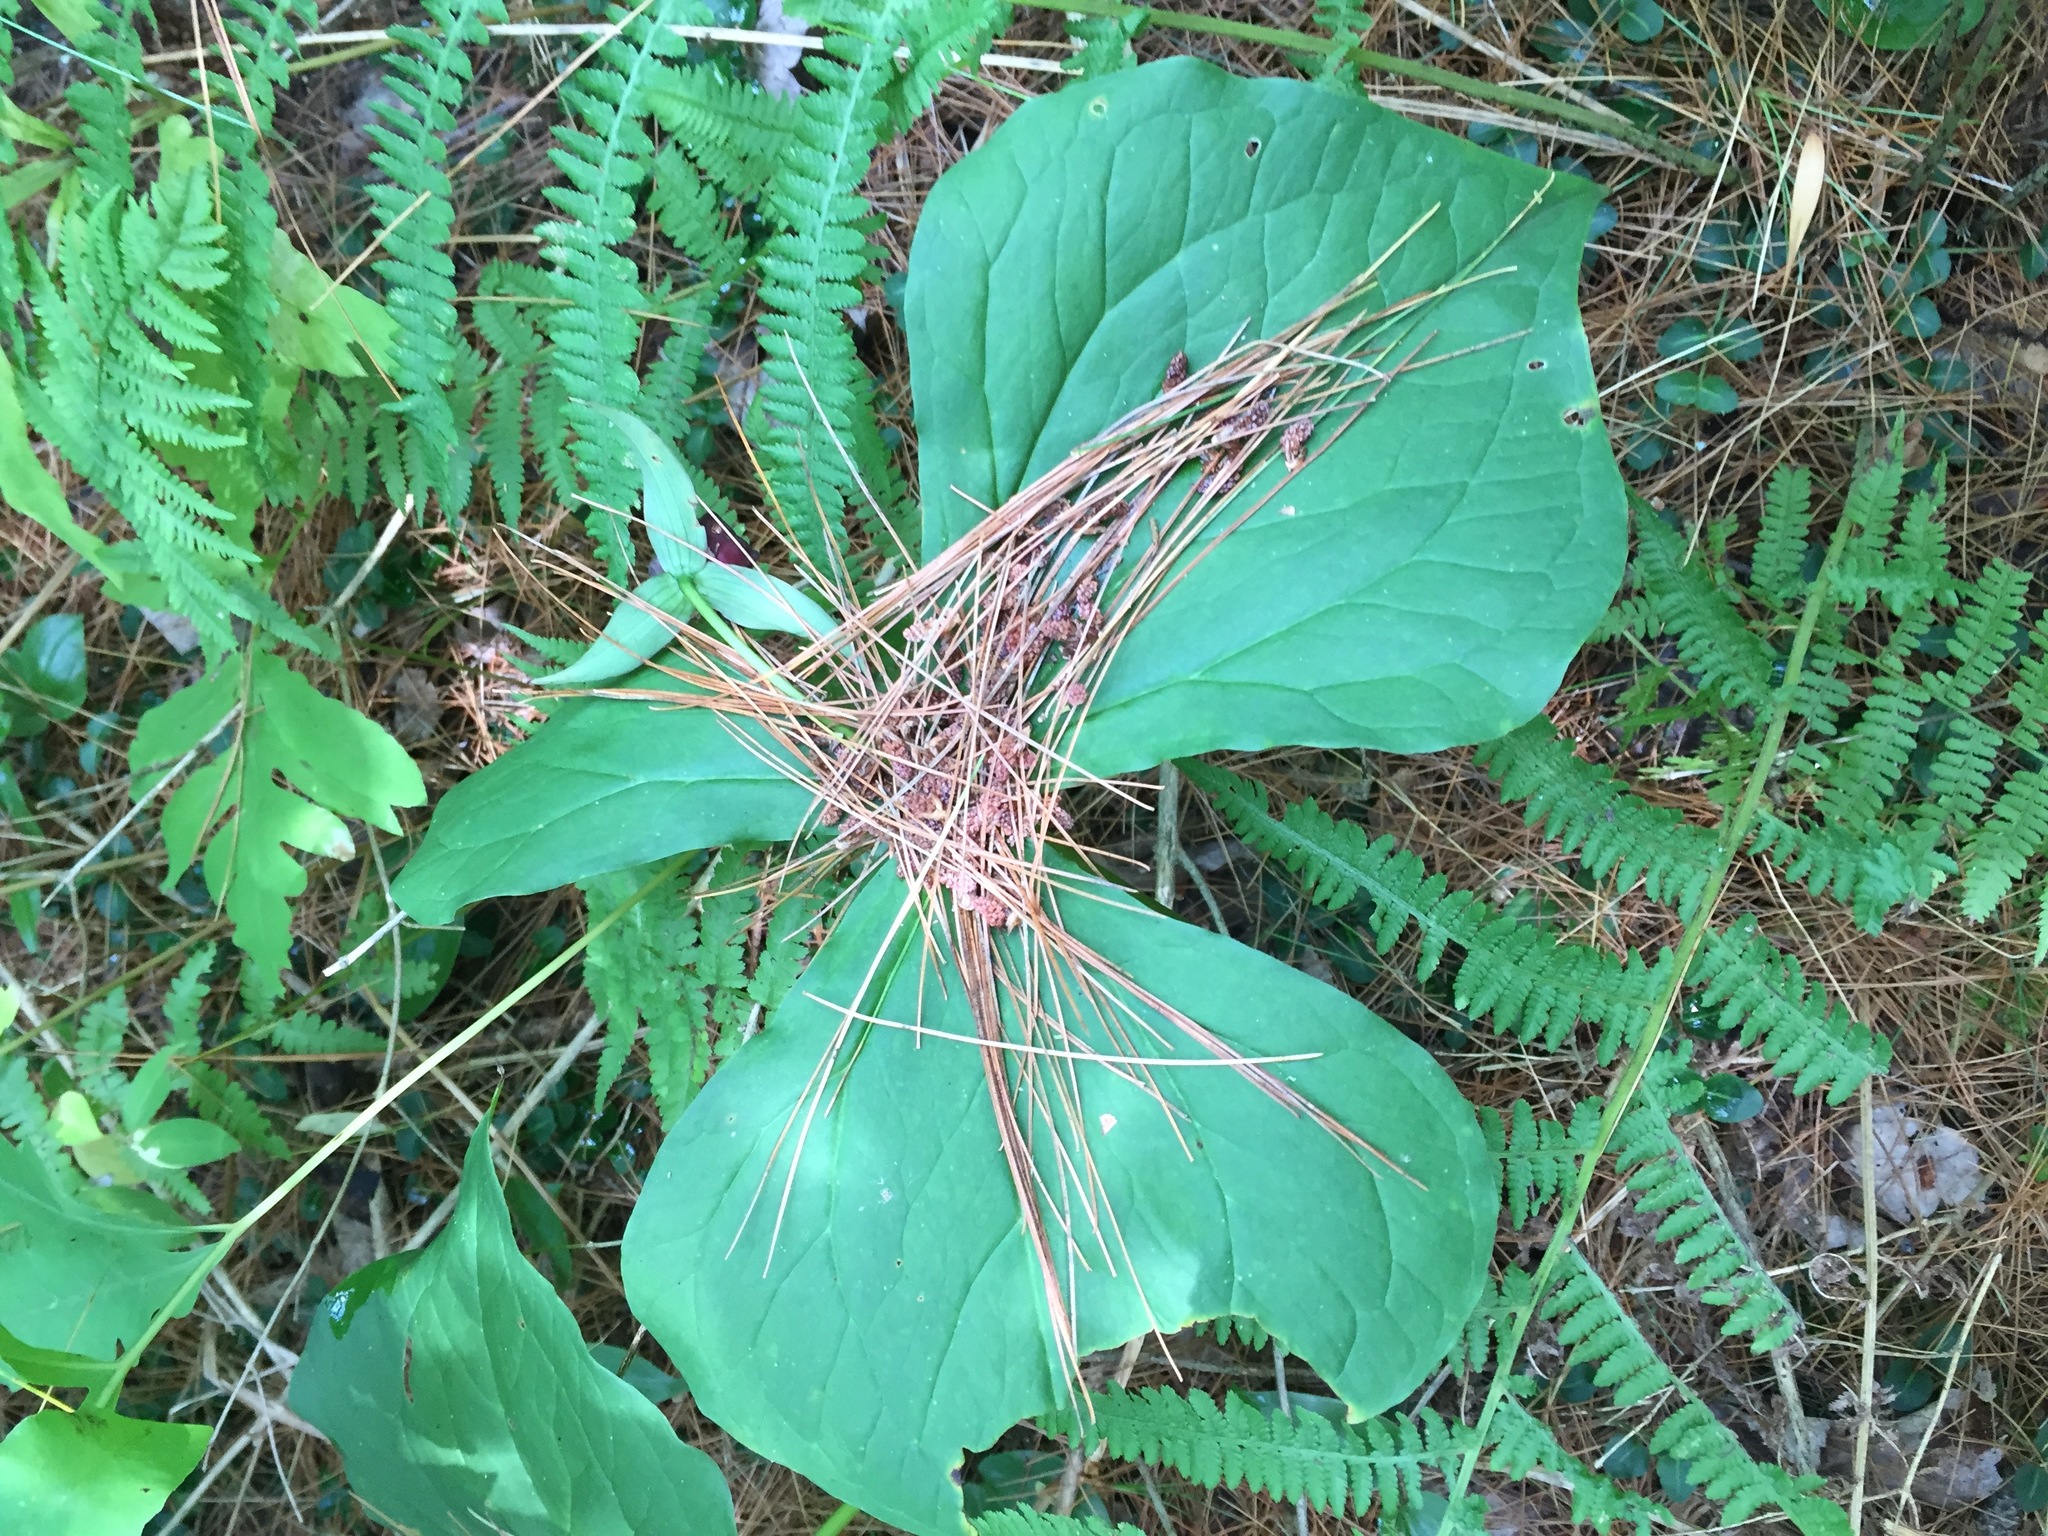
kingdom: Plantae
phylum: Tracheophyta
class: Liliopsida
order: Liliales
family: Melanthiaceae
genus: Trillium
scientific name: Trillium erectum
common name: Purple trillium
